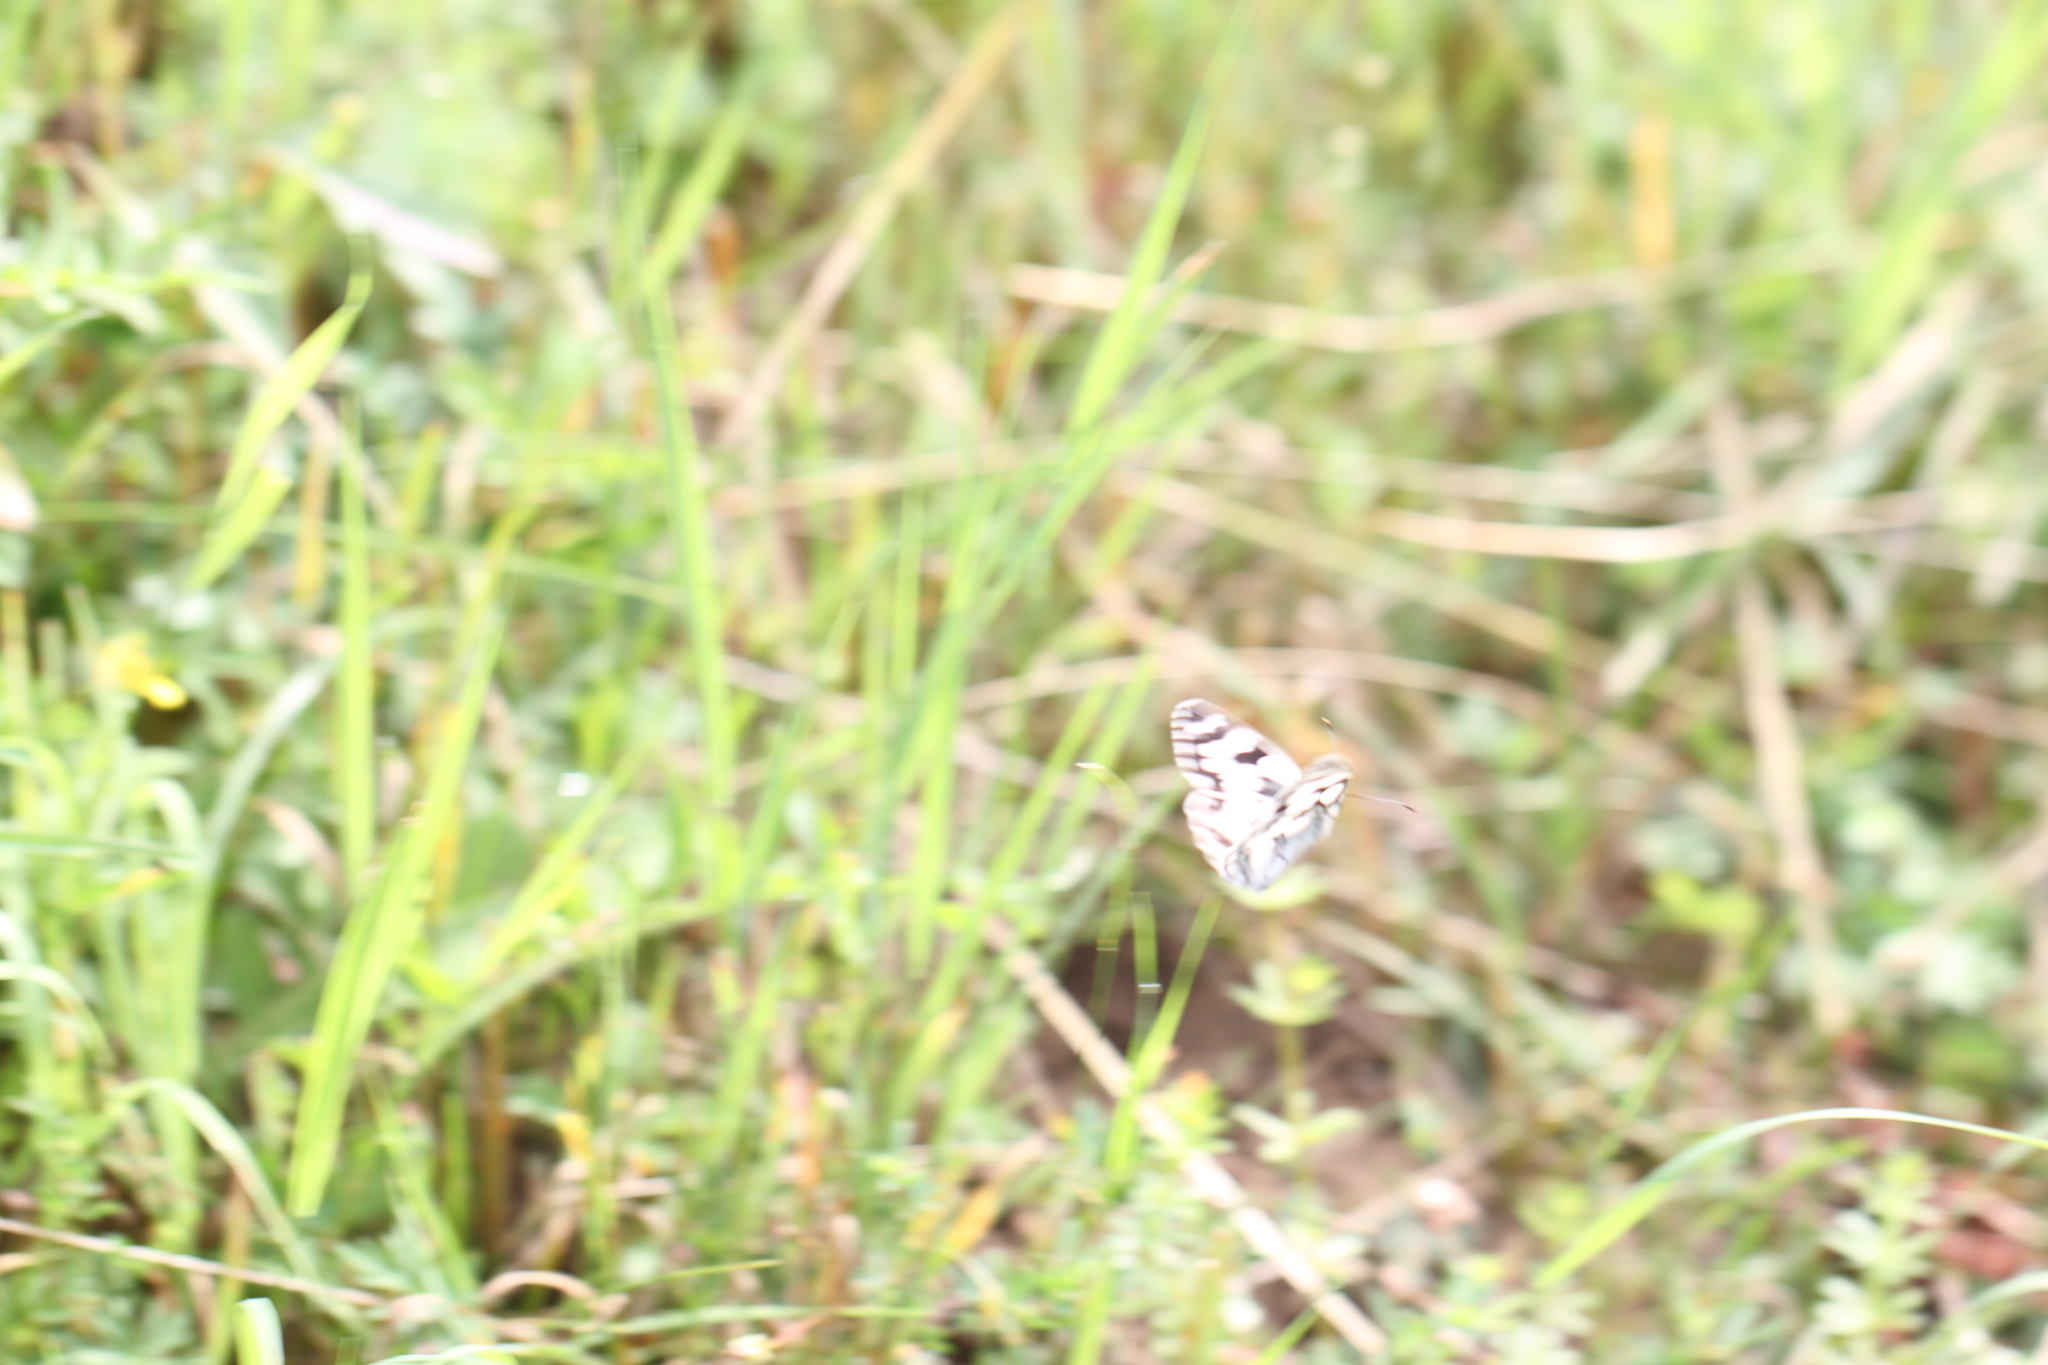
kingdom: Animalia
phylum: Arthropoda
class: Insecta
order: Lepidoptera
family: Nymphalidae
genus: Melanargia
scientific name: Melanargia galathea
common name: Marbled white
